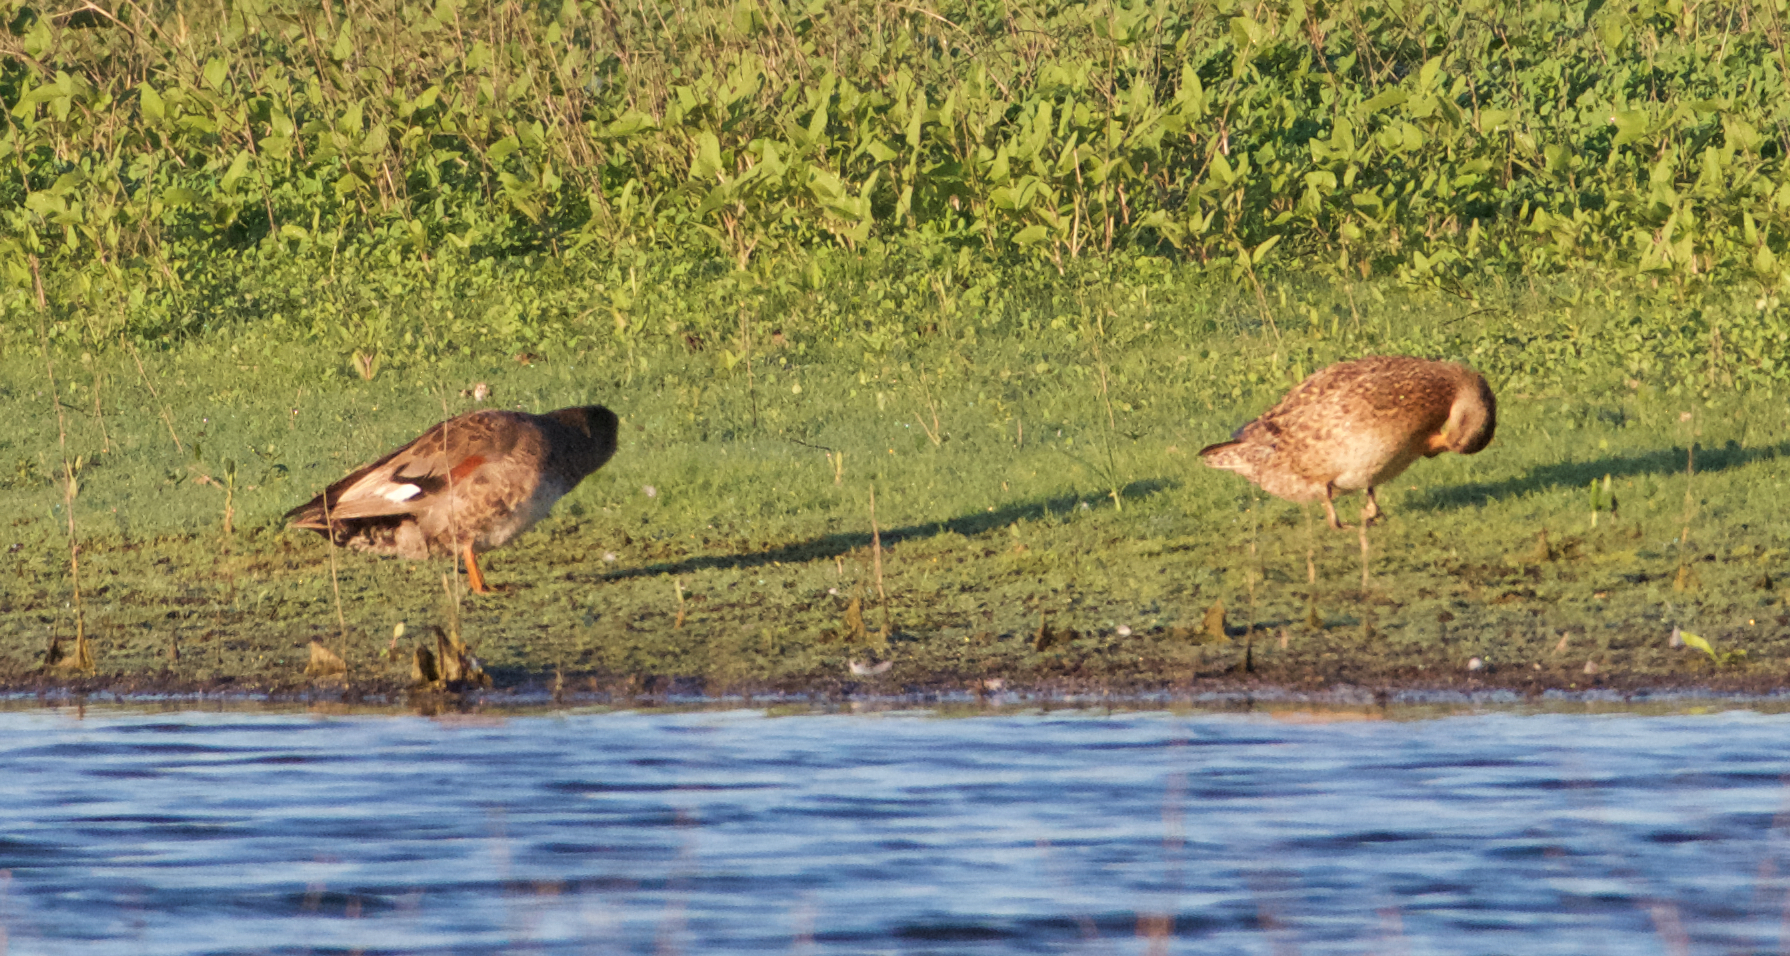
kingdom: Animalia
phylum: Chordata
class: Aves
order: Anseriformes
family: Anatidae
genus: Mareca
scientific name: Mareca strepera
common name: Gadwall
